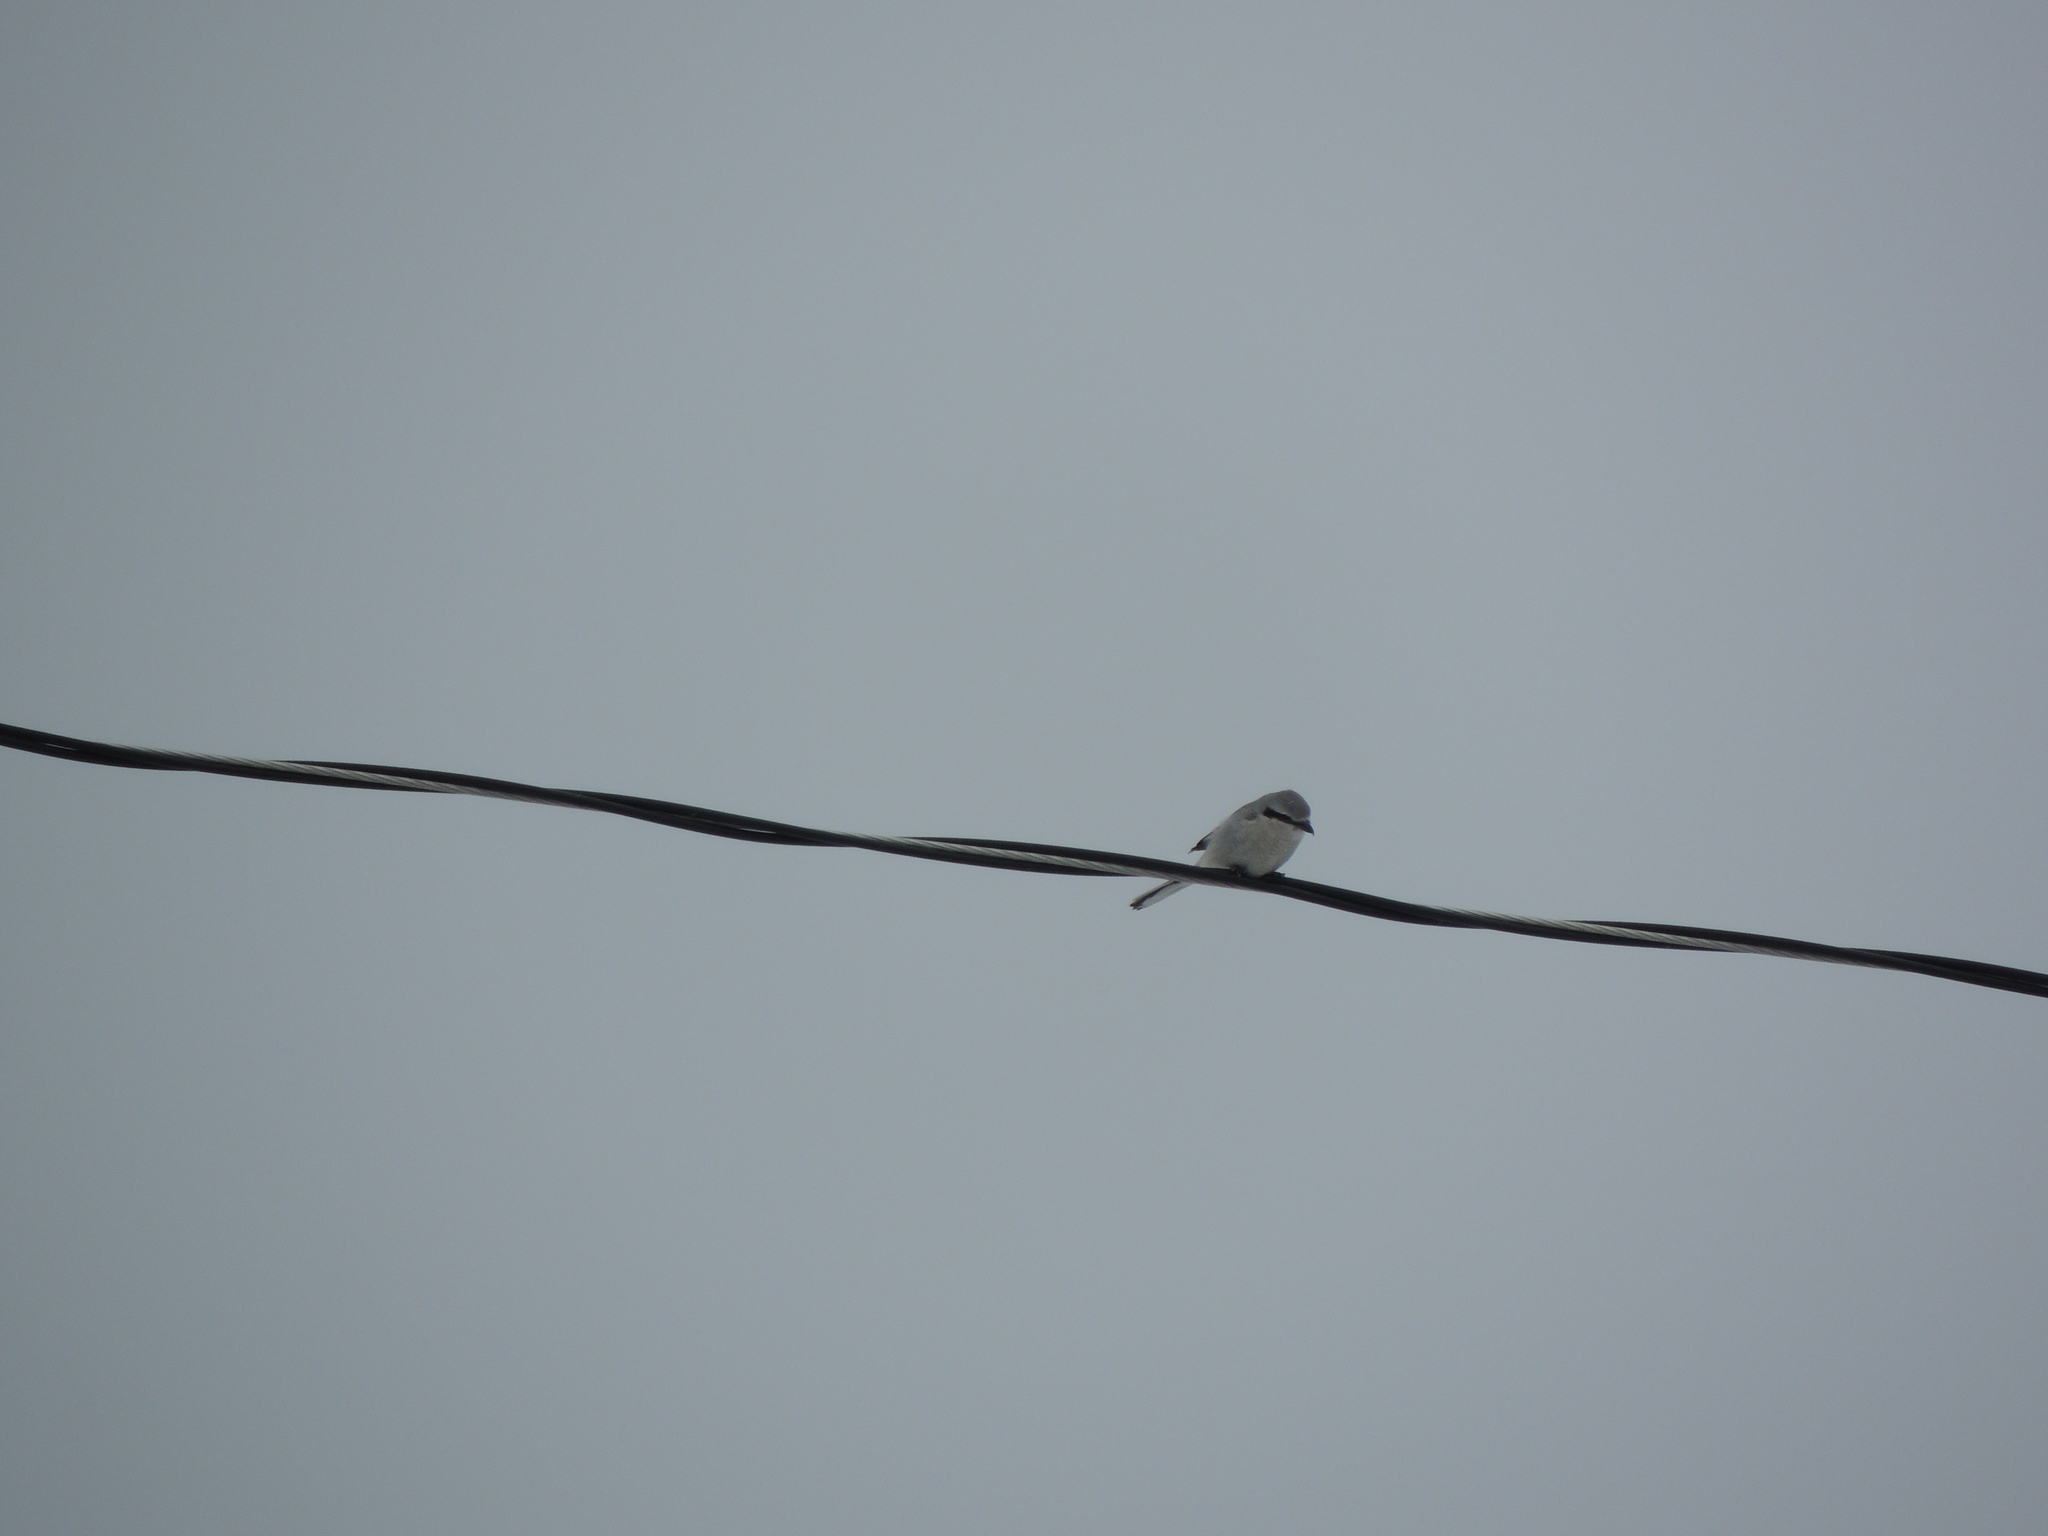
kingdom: Animalia
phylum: Chordata
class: Aves
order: Passeriformes
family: Laniidae
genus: Lanius
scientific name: Lanius borealis
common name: Northern shrike
